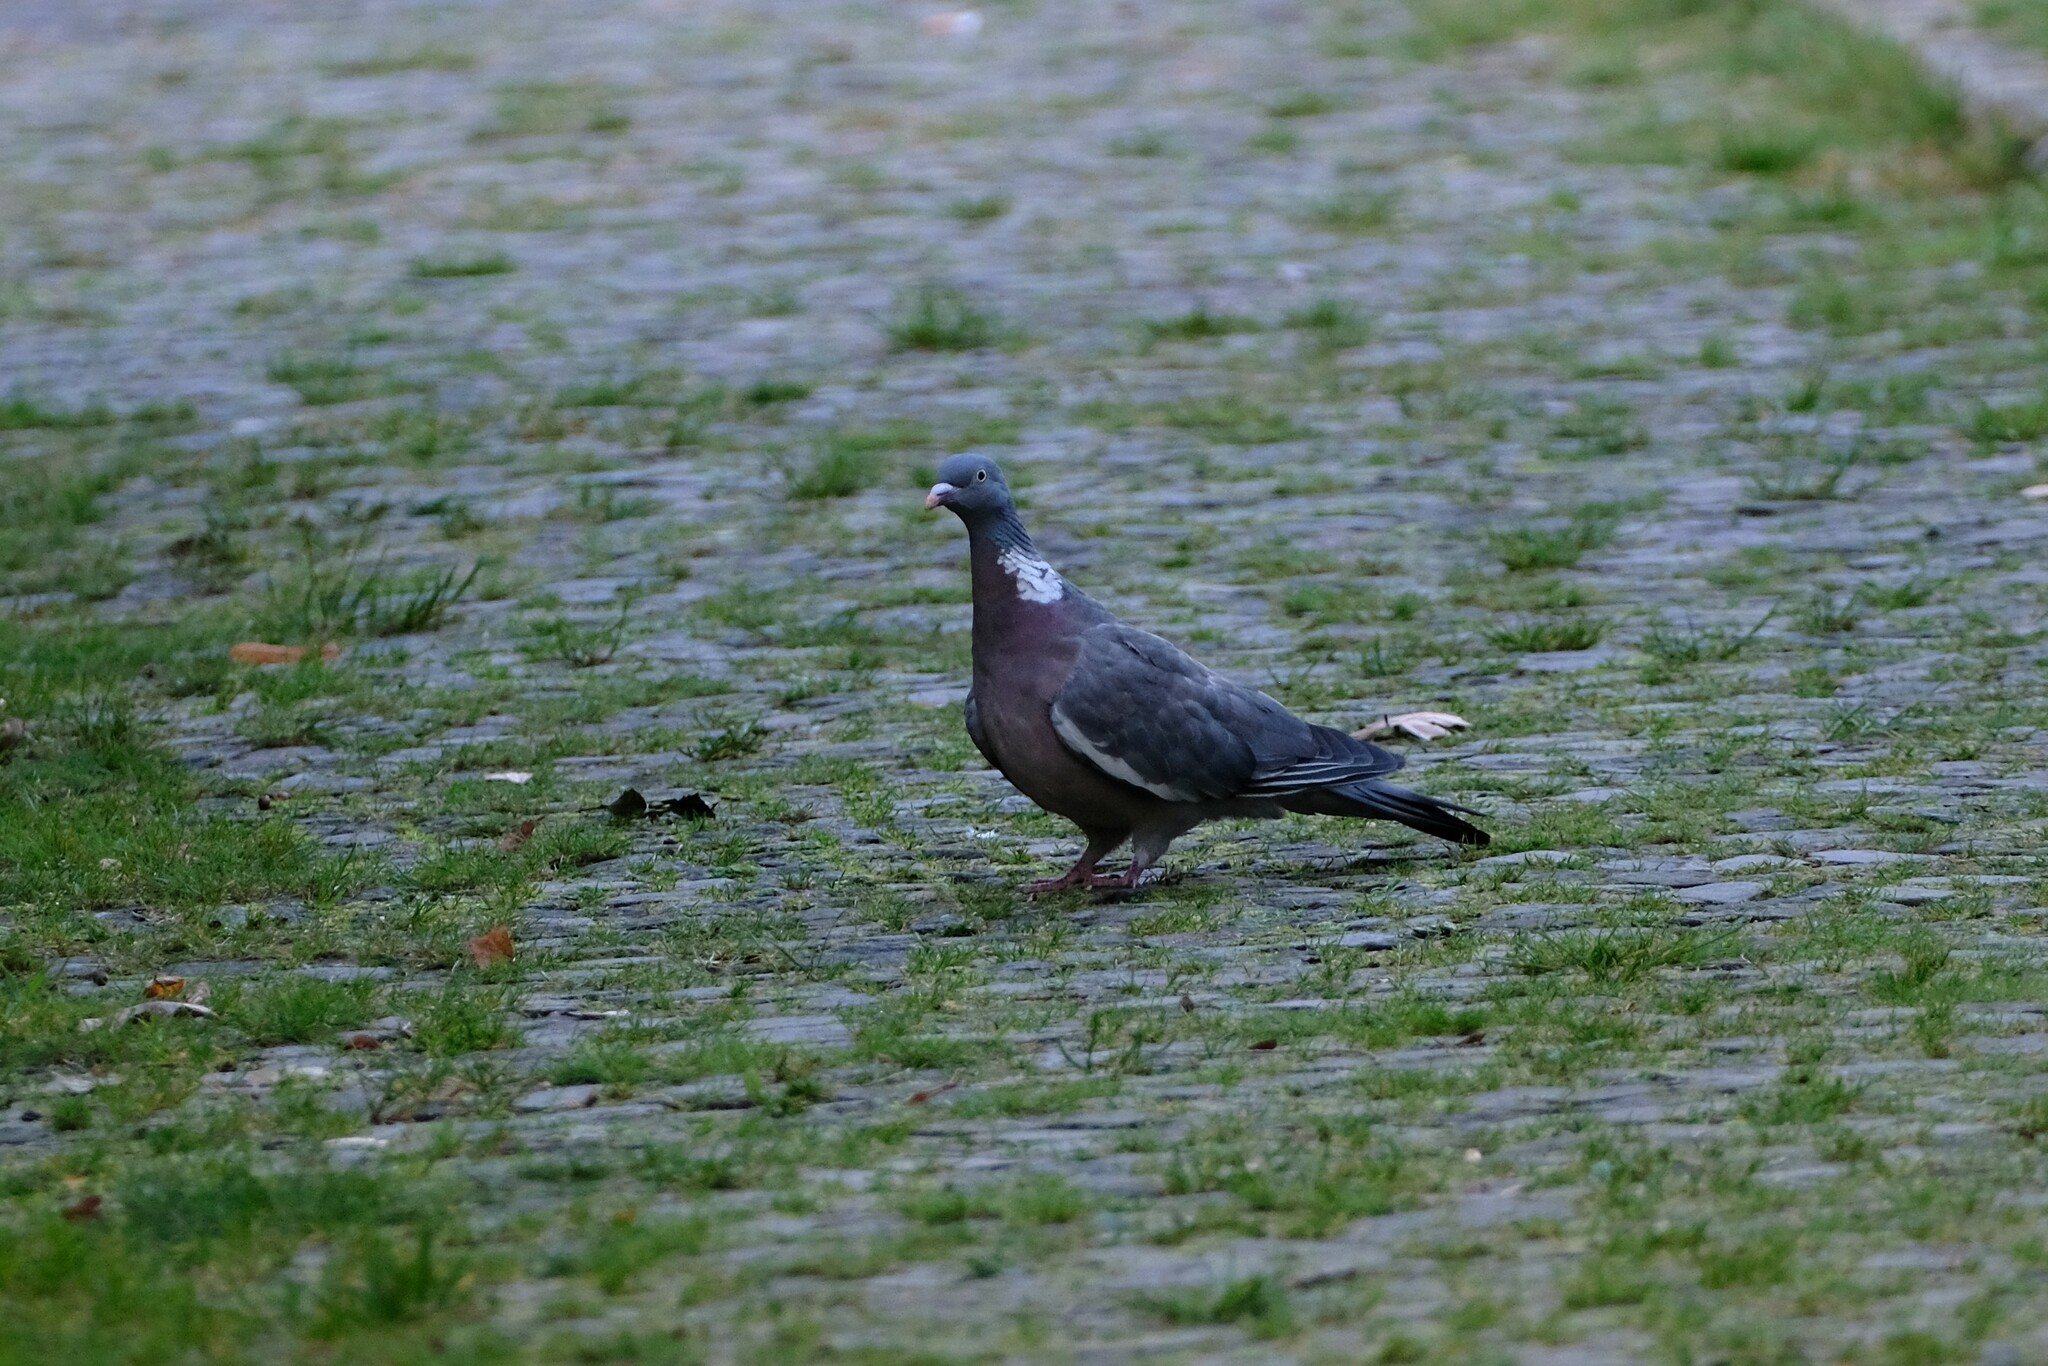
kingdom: Animalia
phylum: Chordata
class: Aves
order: Columbiformes
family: Columbidae
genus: Columba
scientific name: Columba palumbus
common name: Common wood pigeon
